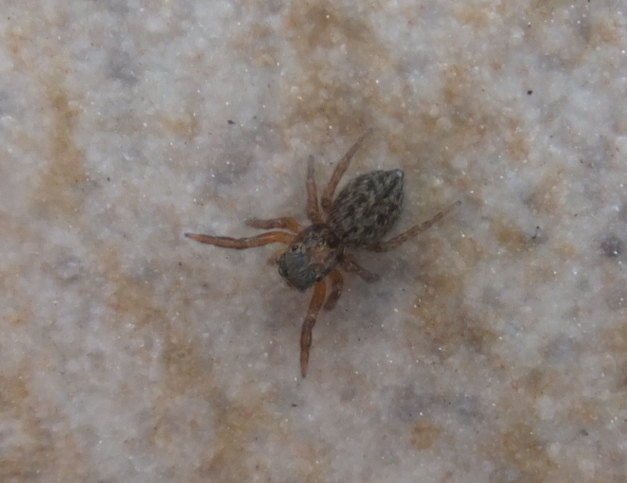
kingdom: Animalia
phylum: Arthropoda
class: Arachnida
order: Araneae
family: Salticidae
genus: Euophrys
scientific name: Euophrys rufibarbis
